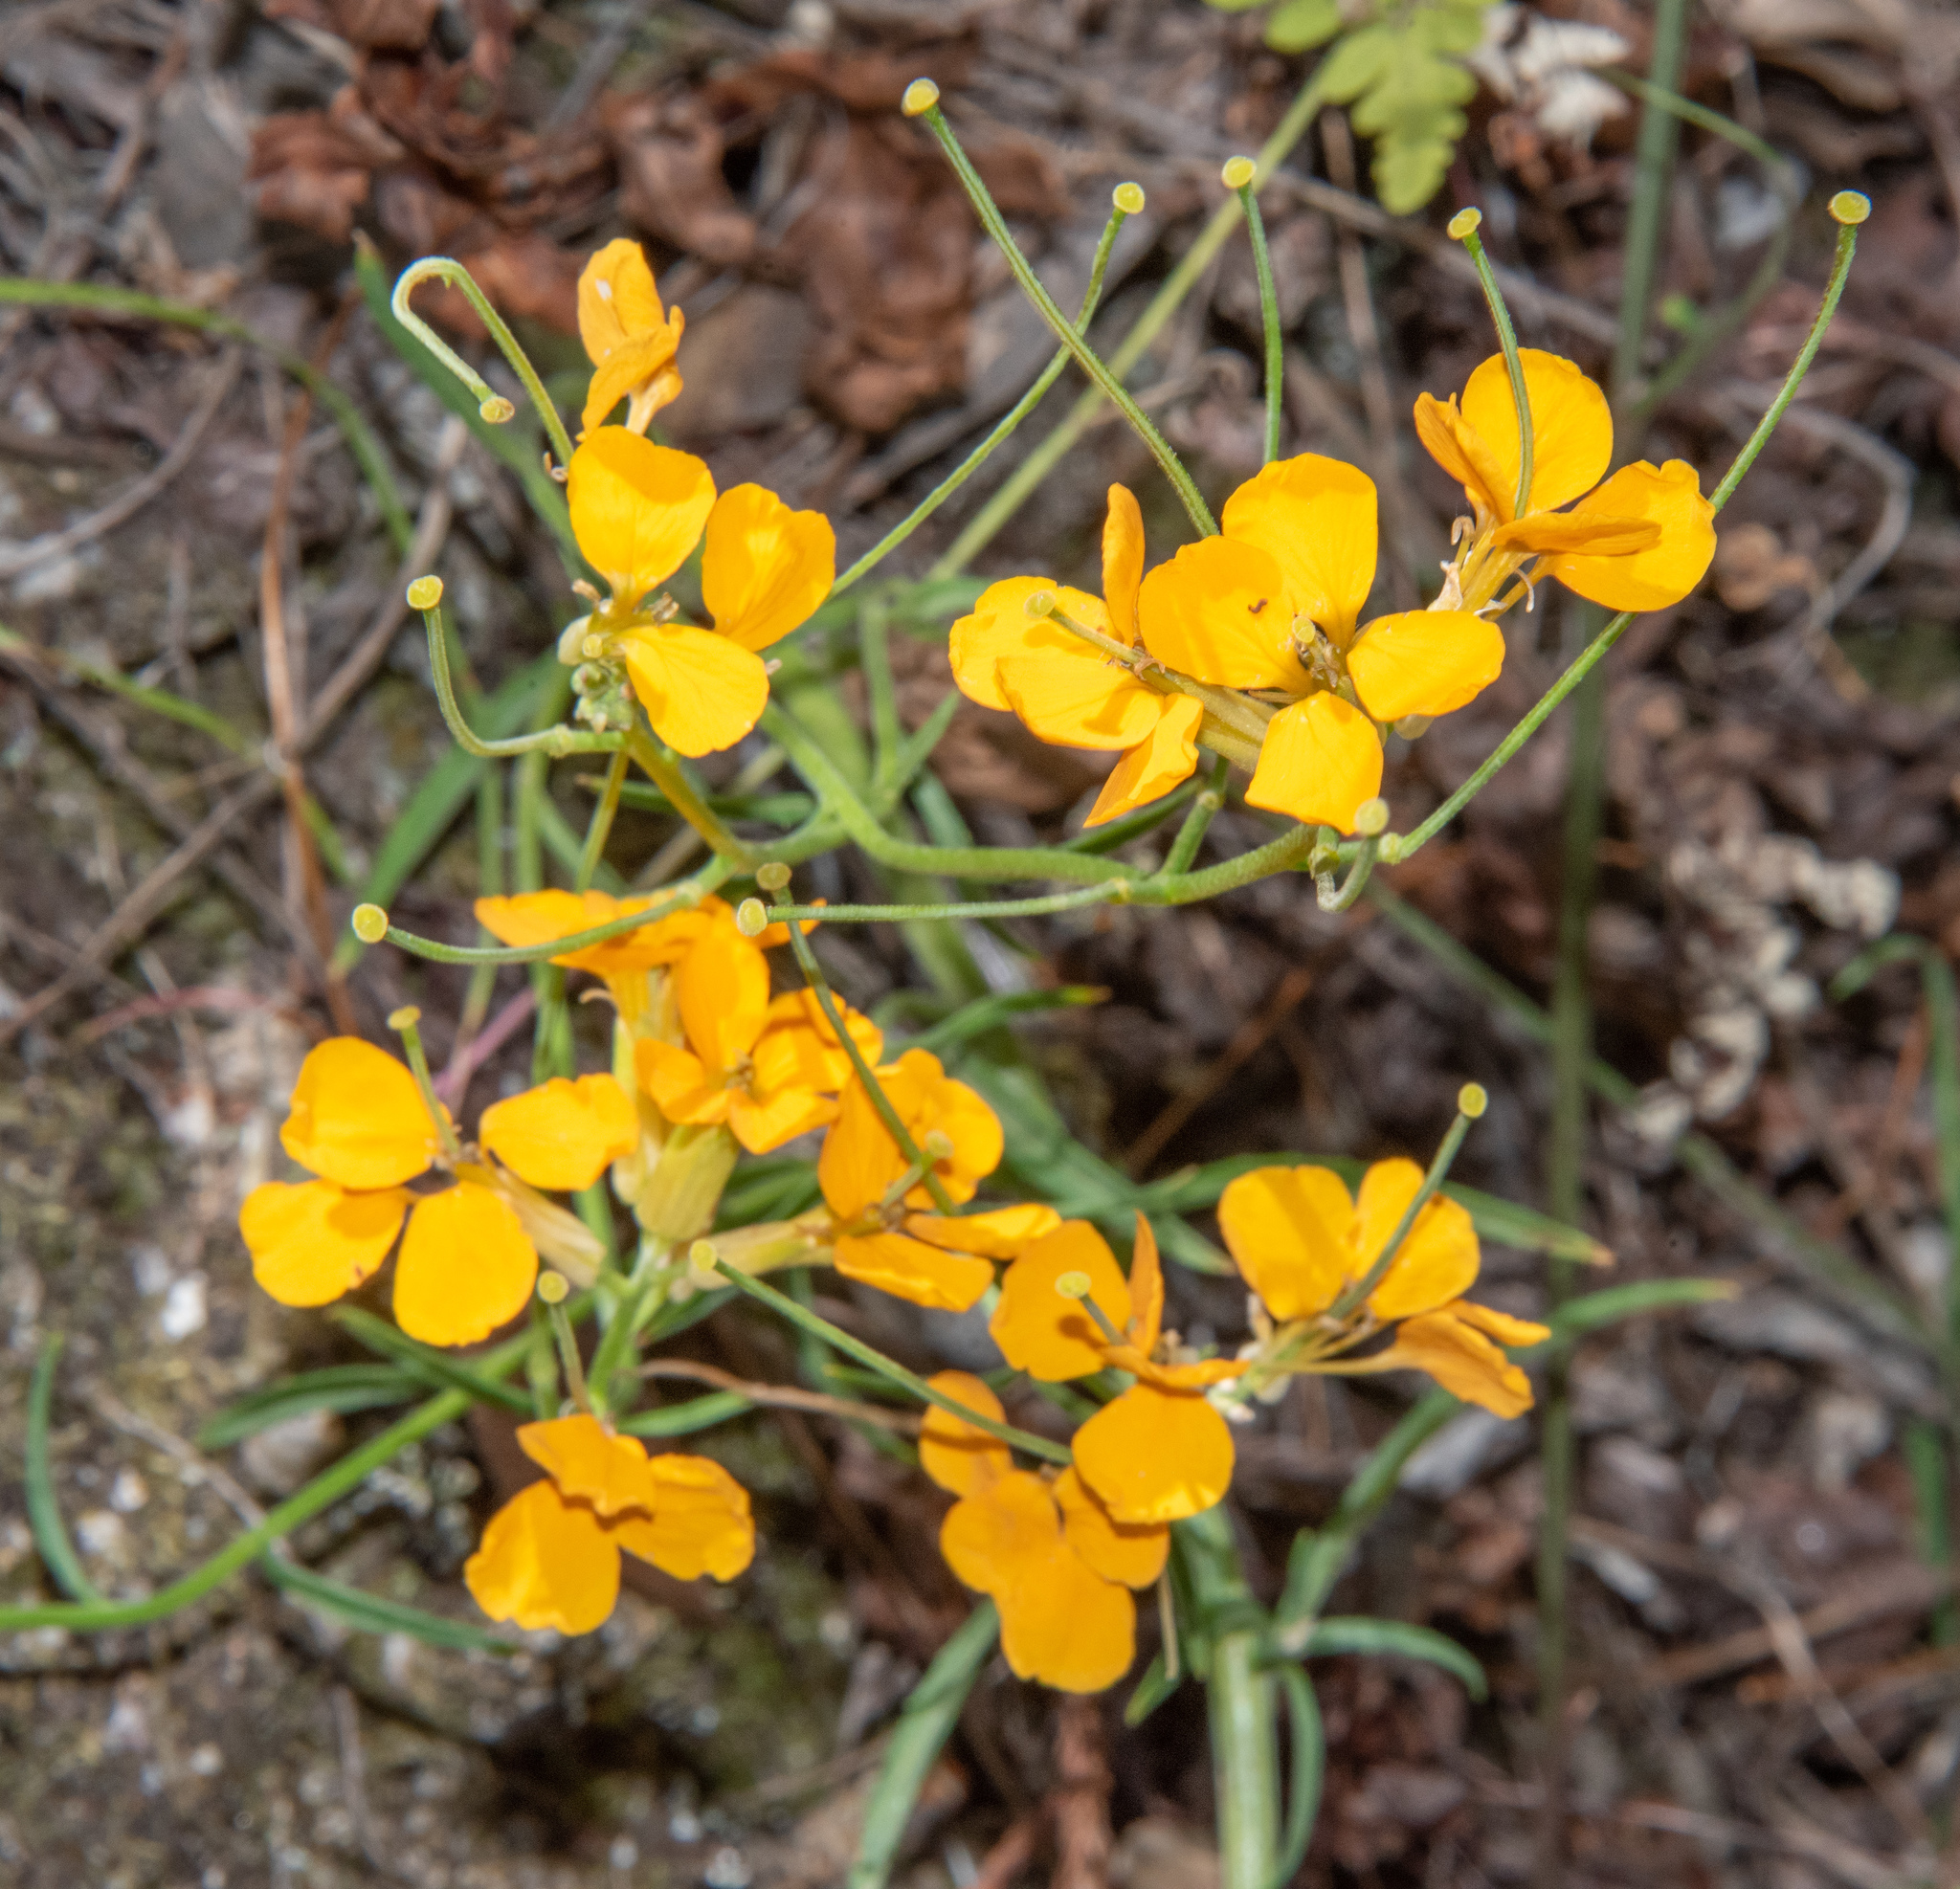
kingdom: Plantae
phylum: Tracheophyta
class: Magnoliopsida
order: Brassicales
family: Brassicaceae
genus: Erysimum
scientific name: Erysimum capitatum
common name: Western wallflower
